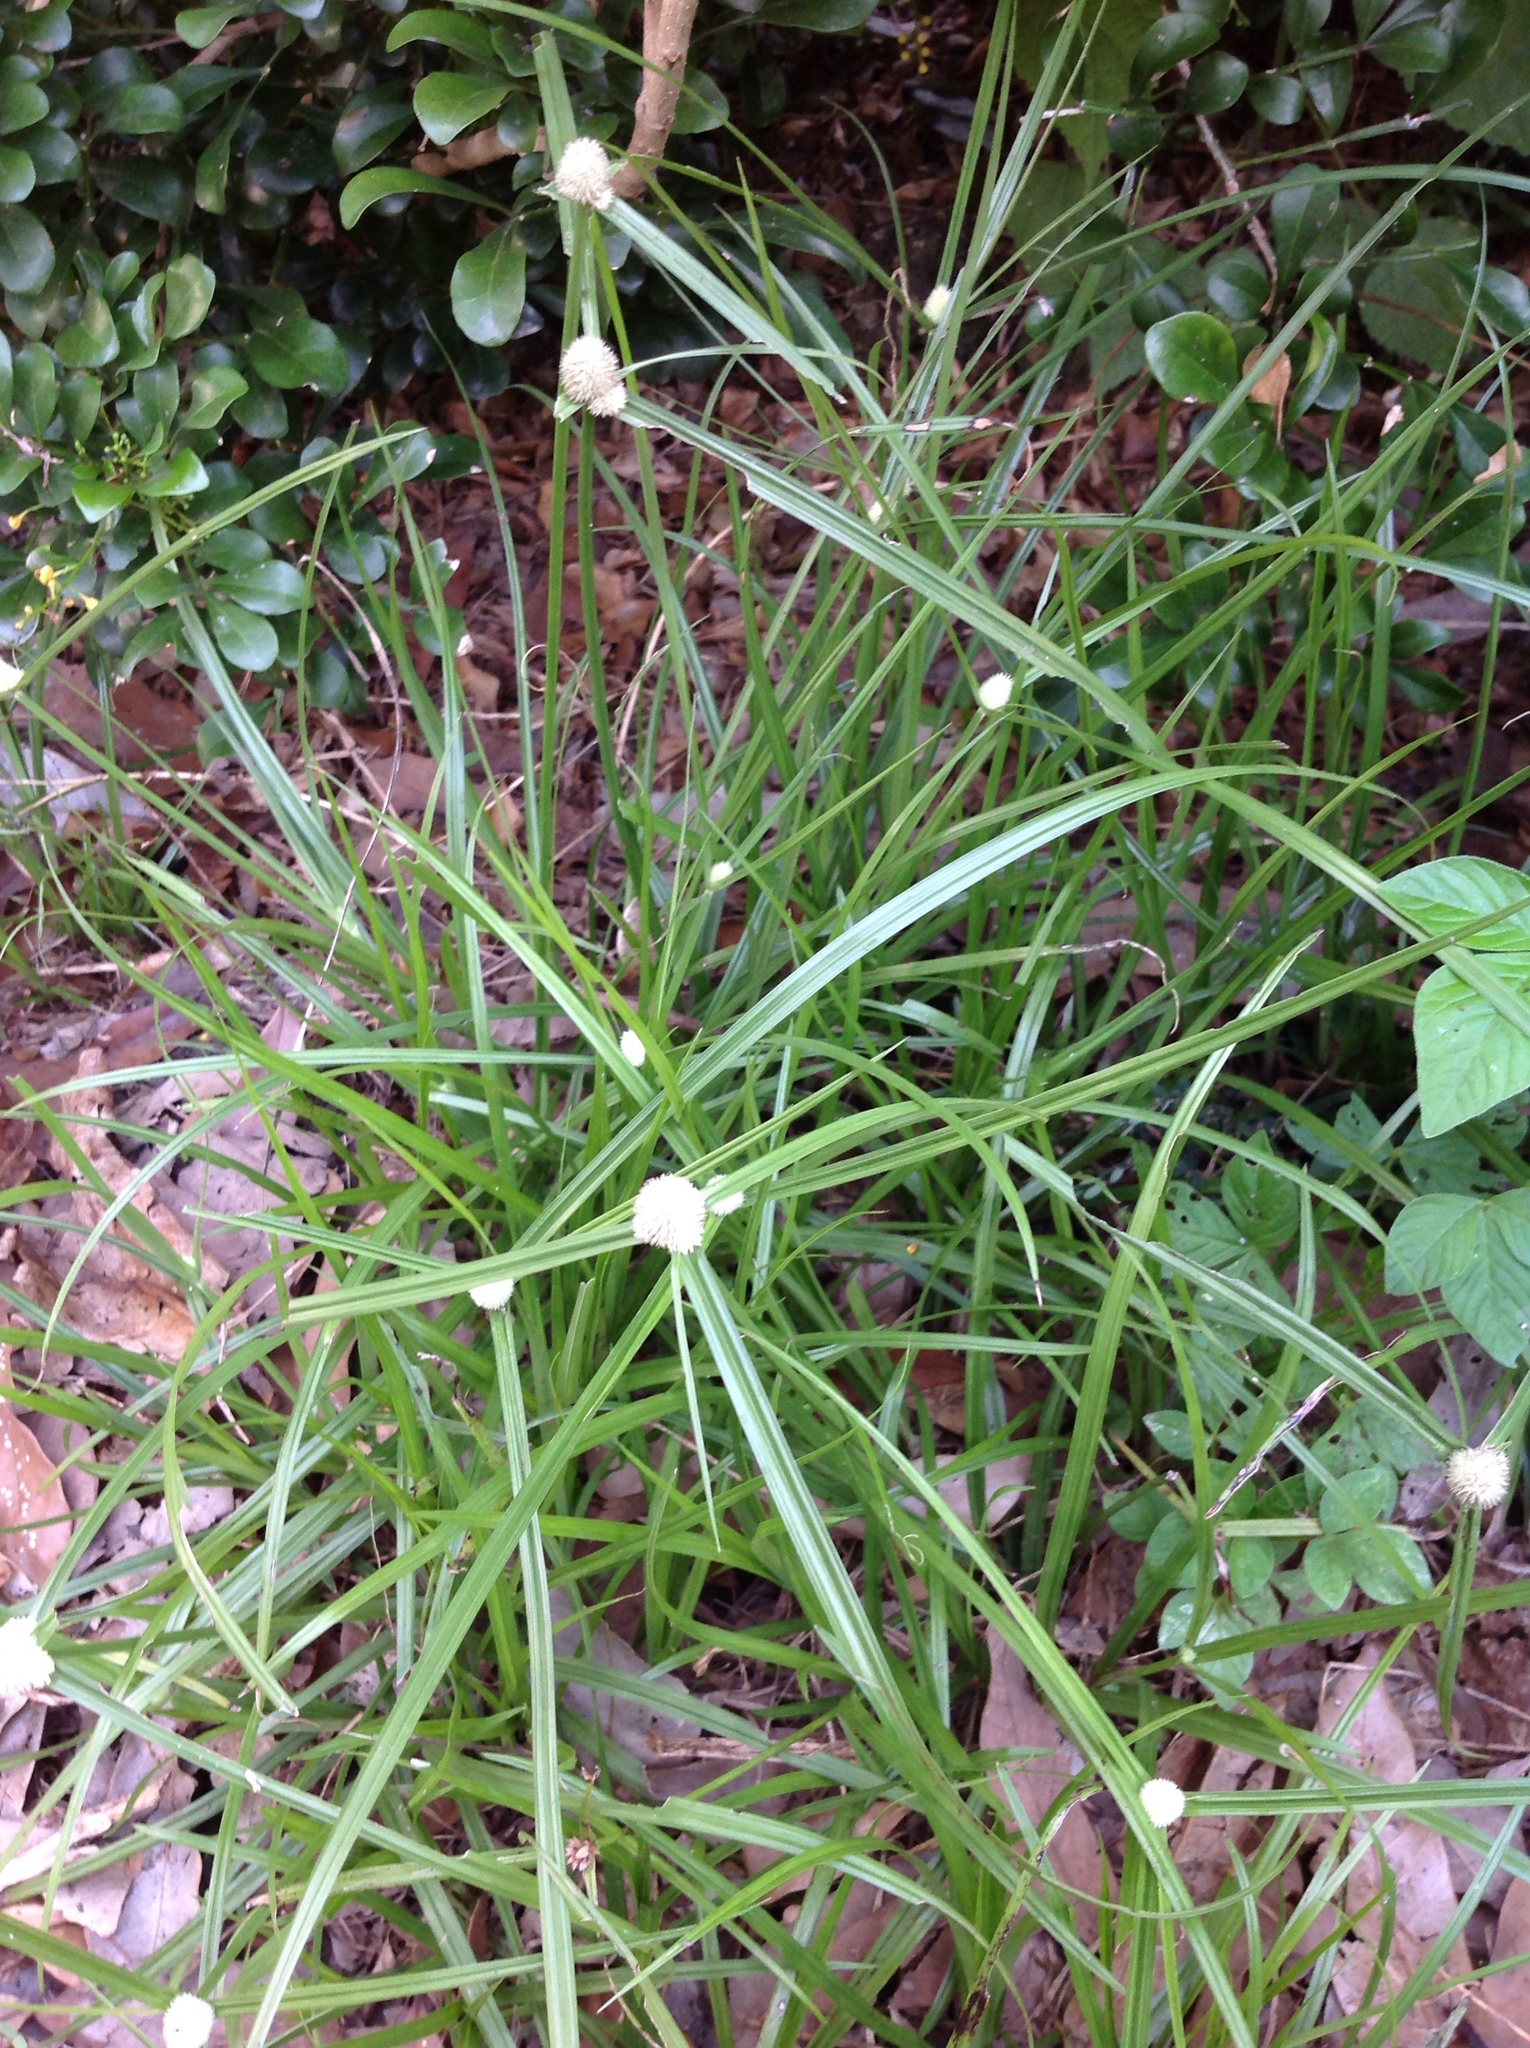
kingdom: Plantae
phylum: Tracheophyta
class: Liliopsida
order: Poales
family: Cyperaceae
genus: Cyperus
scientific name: Cyperus mindorensis
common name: Flatsedge
